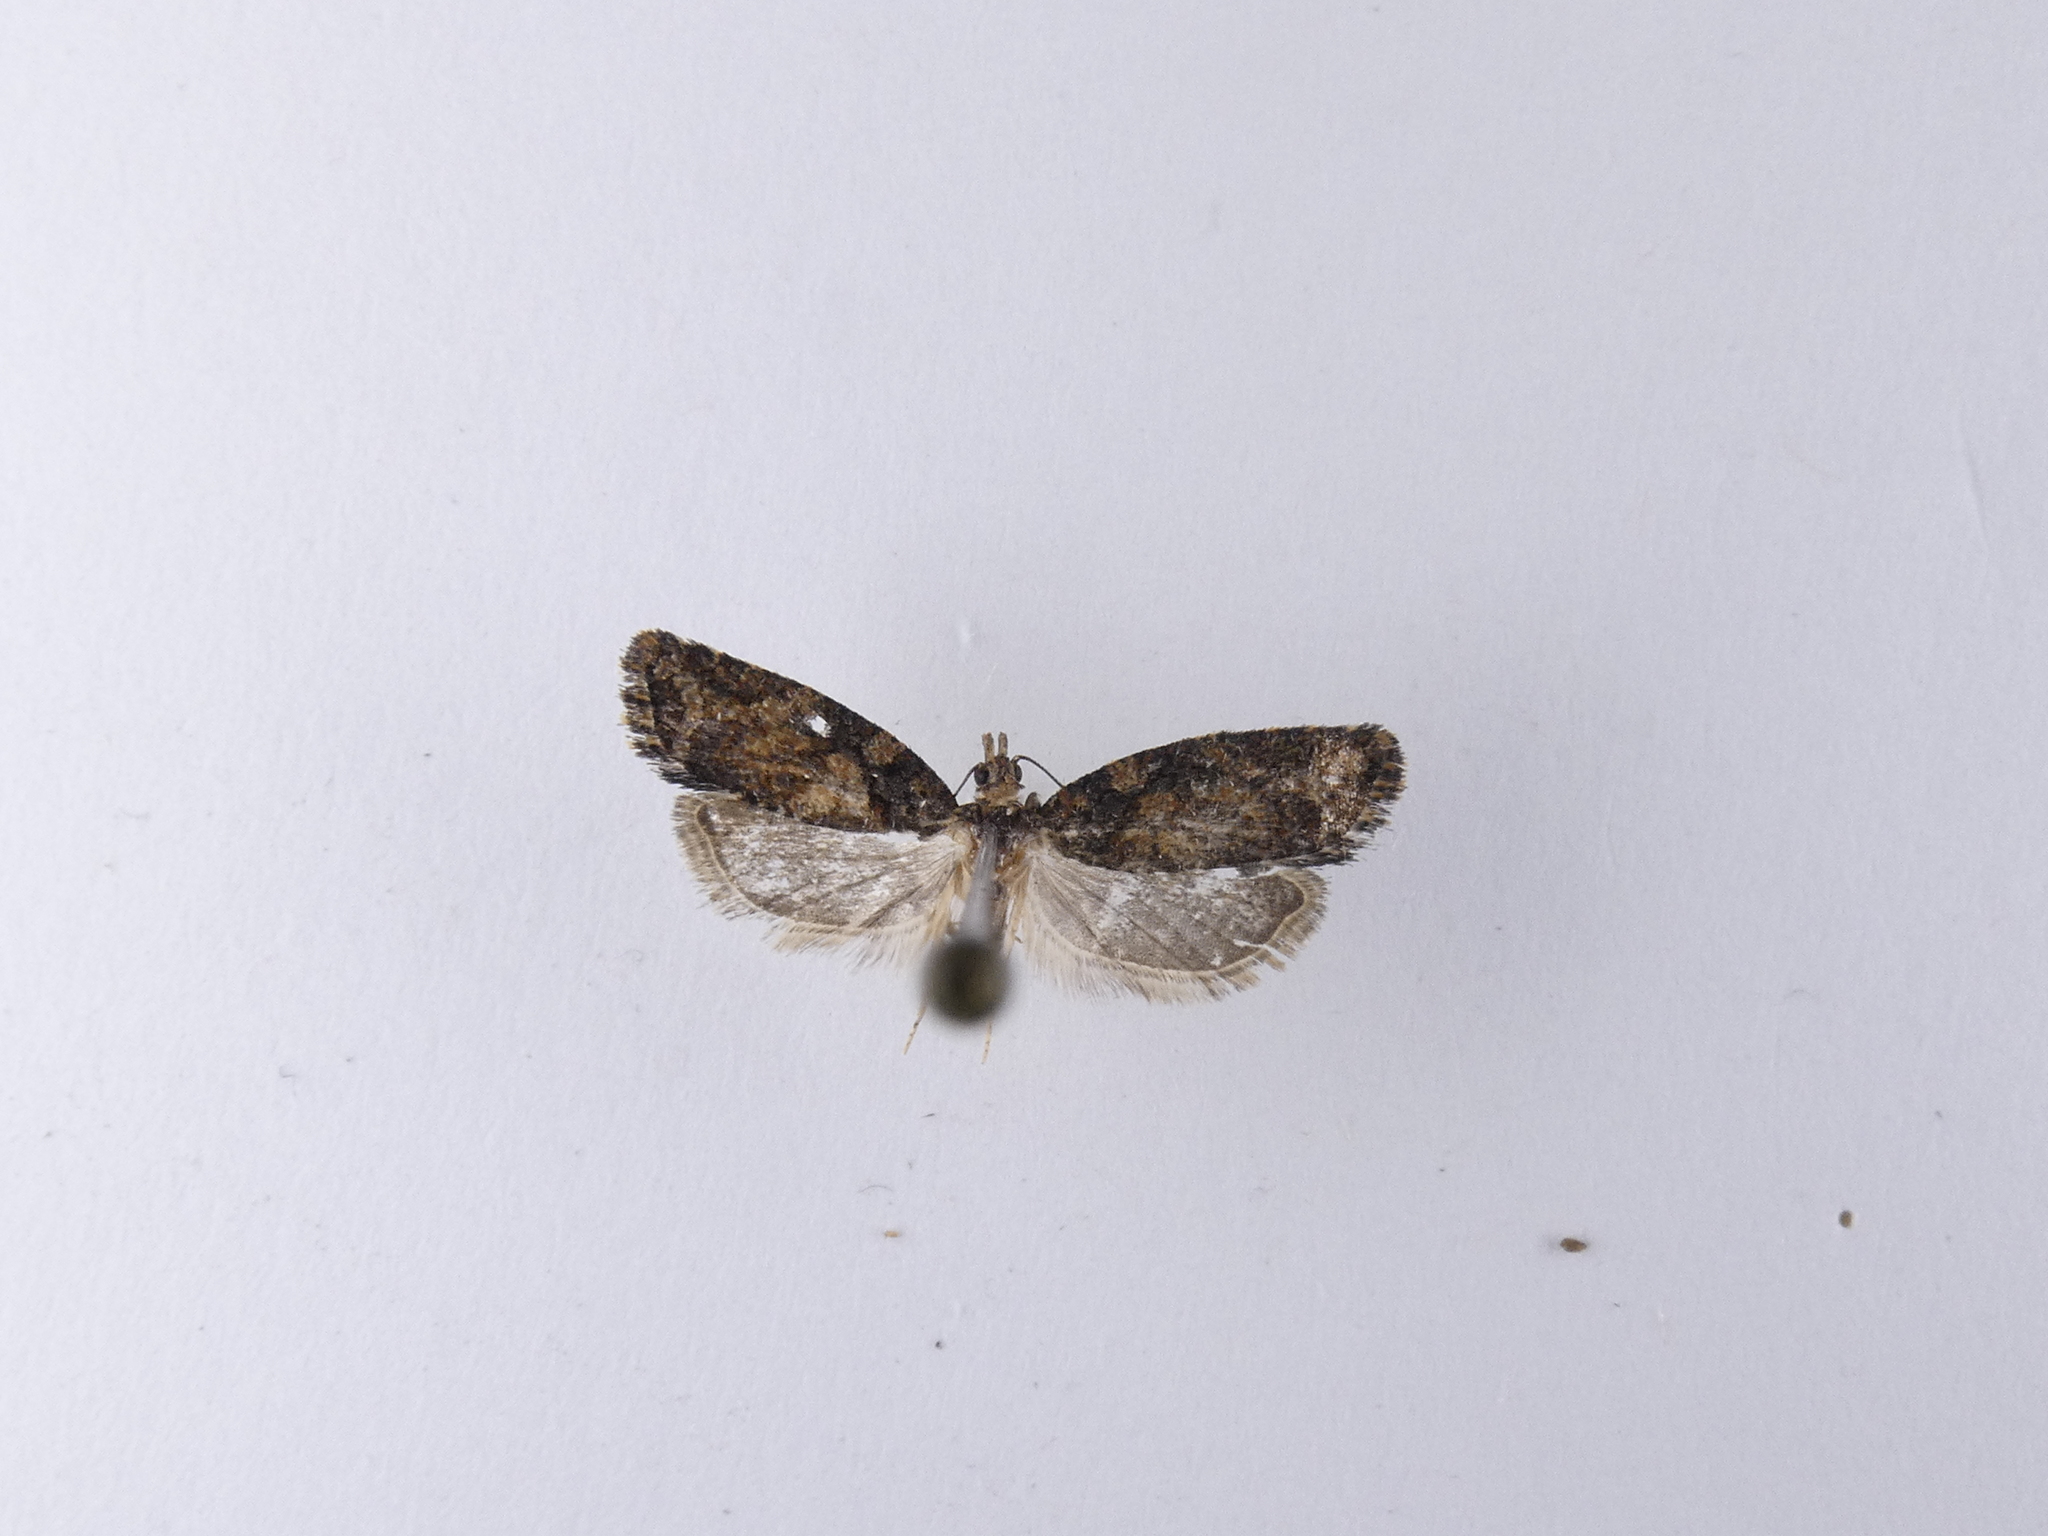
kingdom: Animalia
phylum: Arthropoda
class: Insecta
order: Lepidoptera
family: Tortricidae
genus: Capua
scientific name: Capua intractana
